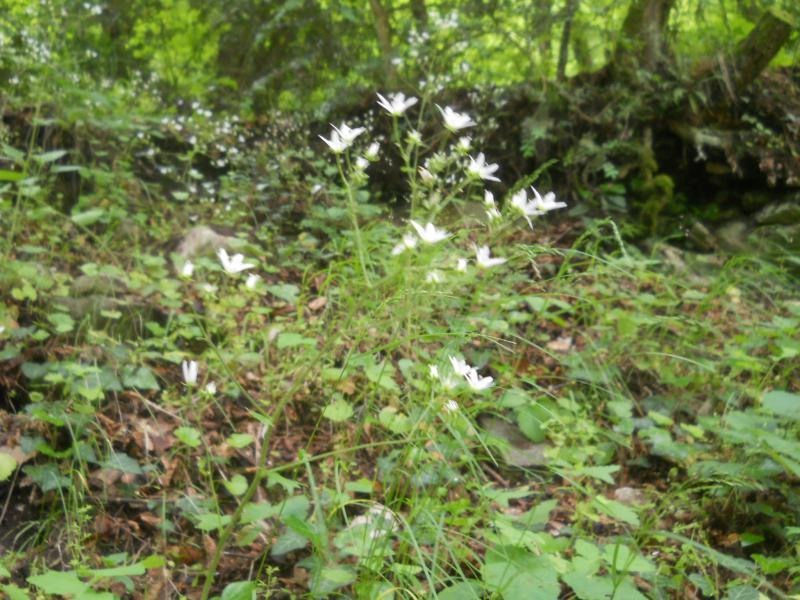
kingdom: Plantae
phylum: Tracheophyta
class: Magnoliopsida
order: Saxifragales
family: Saxifragaceae
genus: Saxifraga
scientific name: Saxifraga rotundifolia
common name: Round-leaved saxifrage
